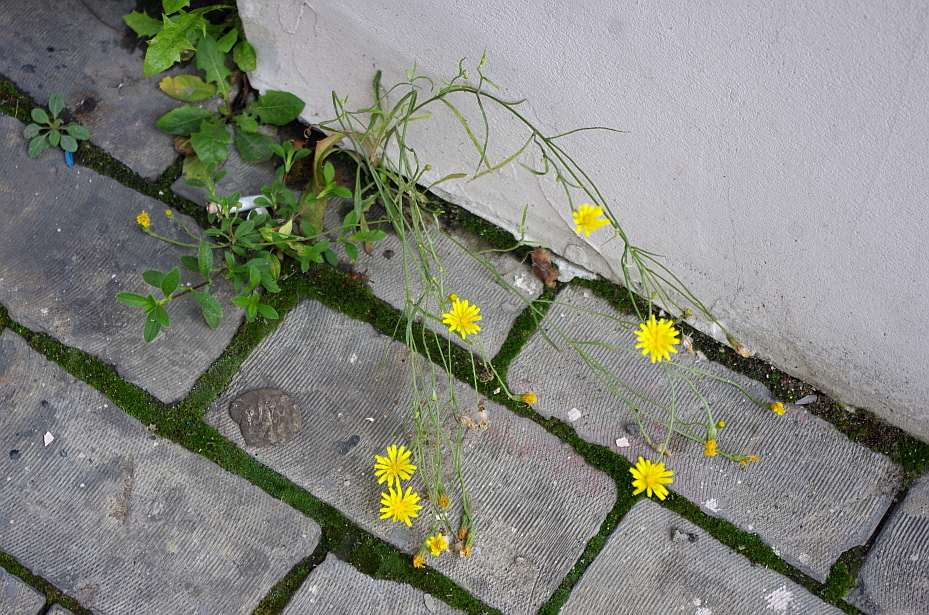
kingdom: Plantae
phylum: Tracheophyta
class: Magnoliopsida
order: Asterales
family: Asteraceae
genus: Crepis
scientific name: Crepis tectorum
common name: Narrow-leaved hawk's-beard
